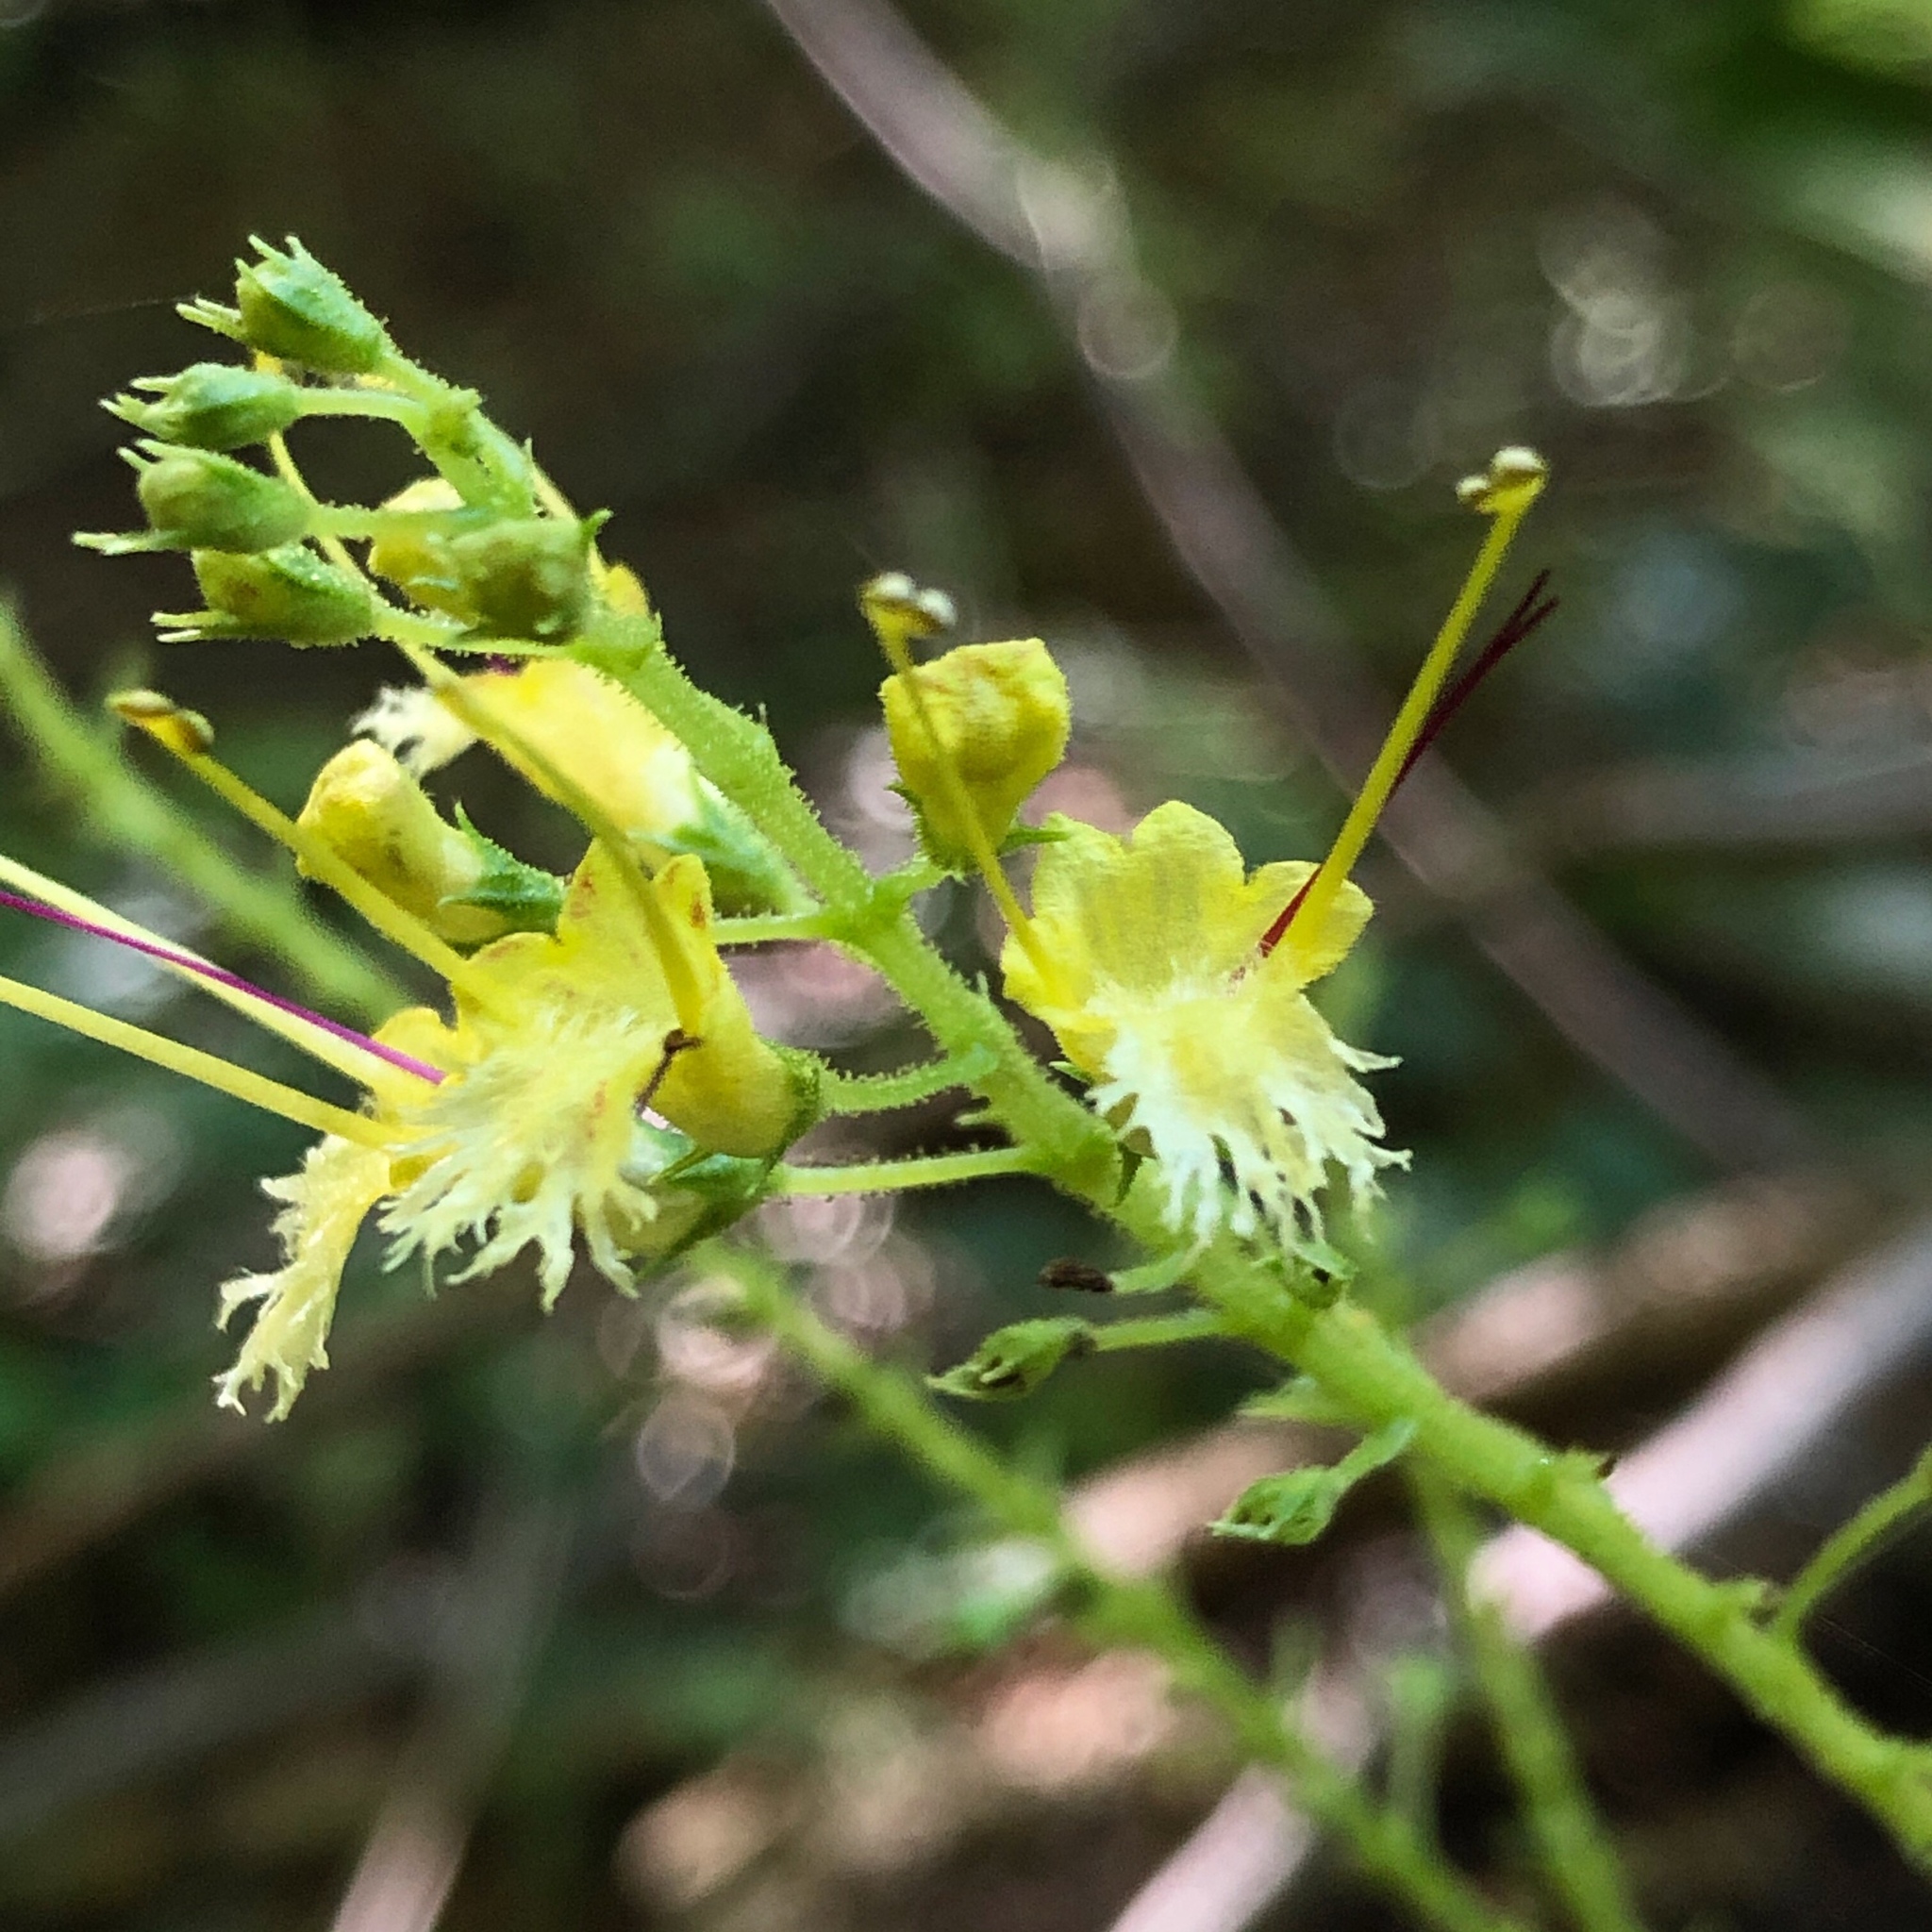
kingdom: Plantae
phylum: Tracheophyta
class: Magnoliopsida
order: Lamiales
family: Lamiaceae
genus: Collinsonia
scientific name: Collinsonia canadensis
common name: Northern horsebalm
